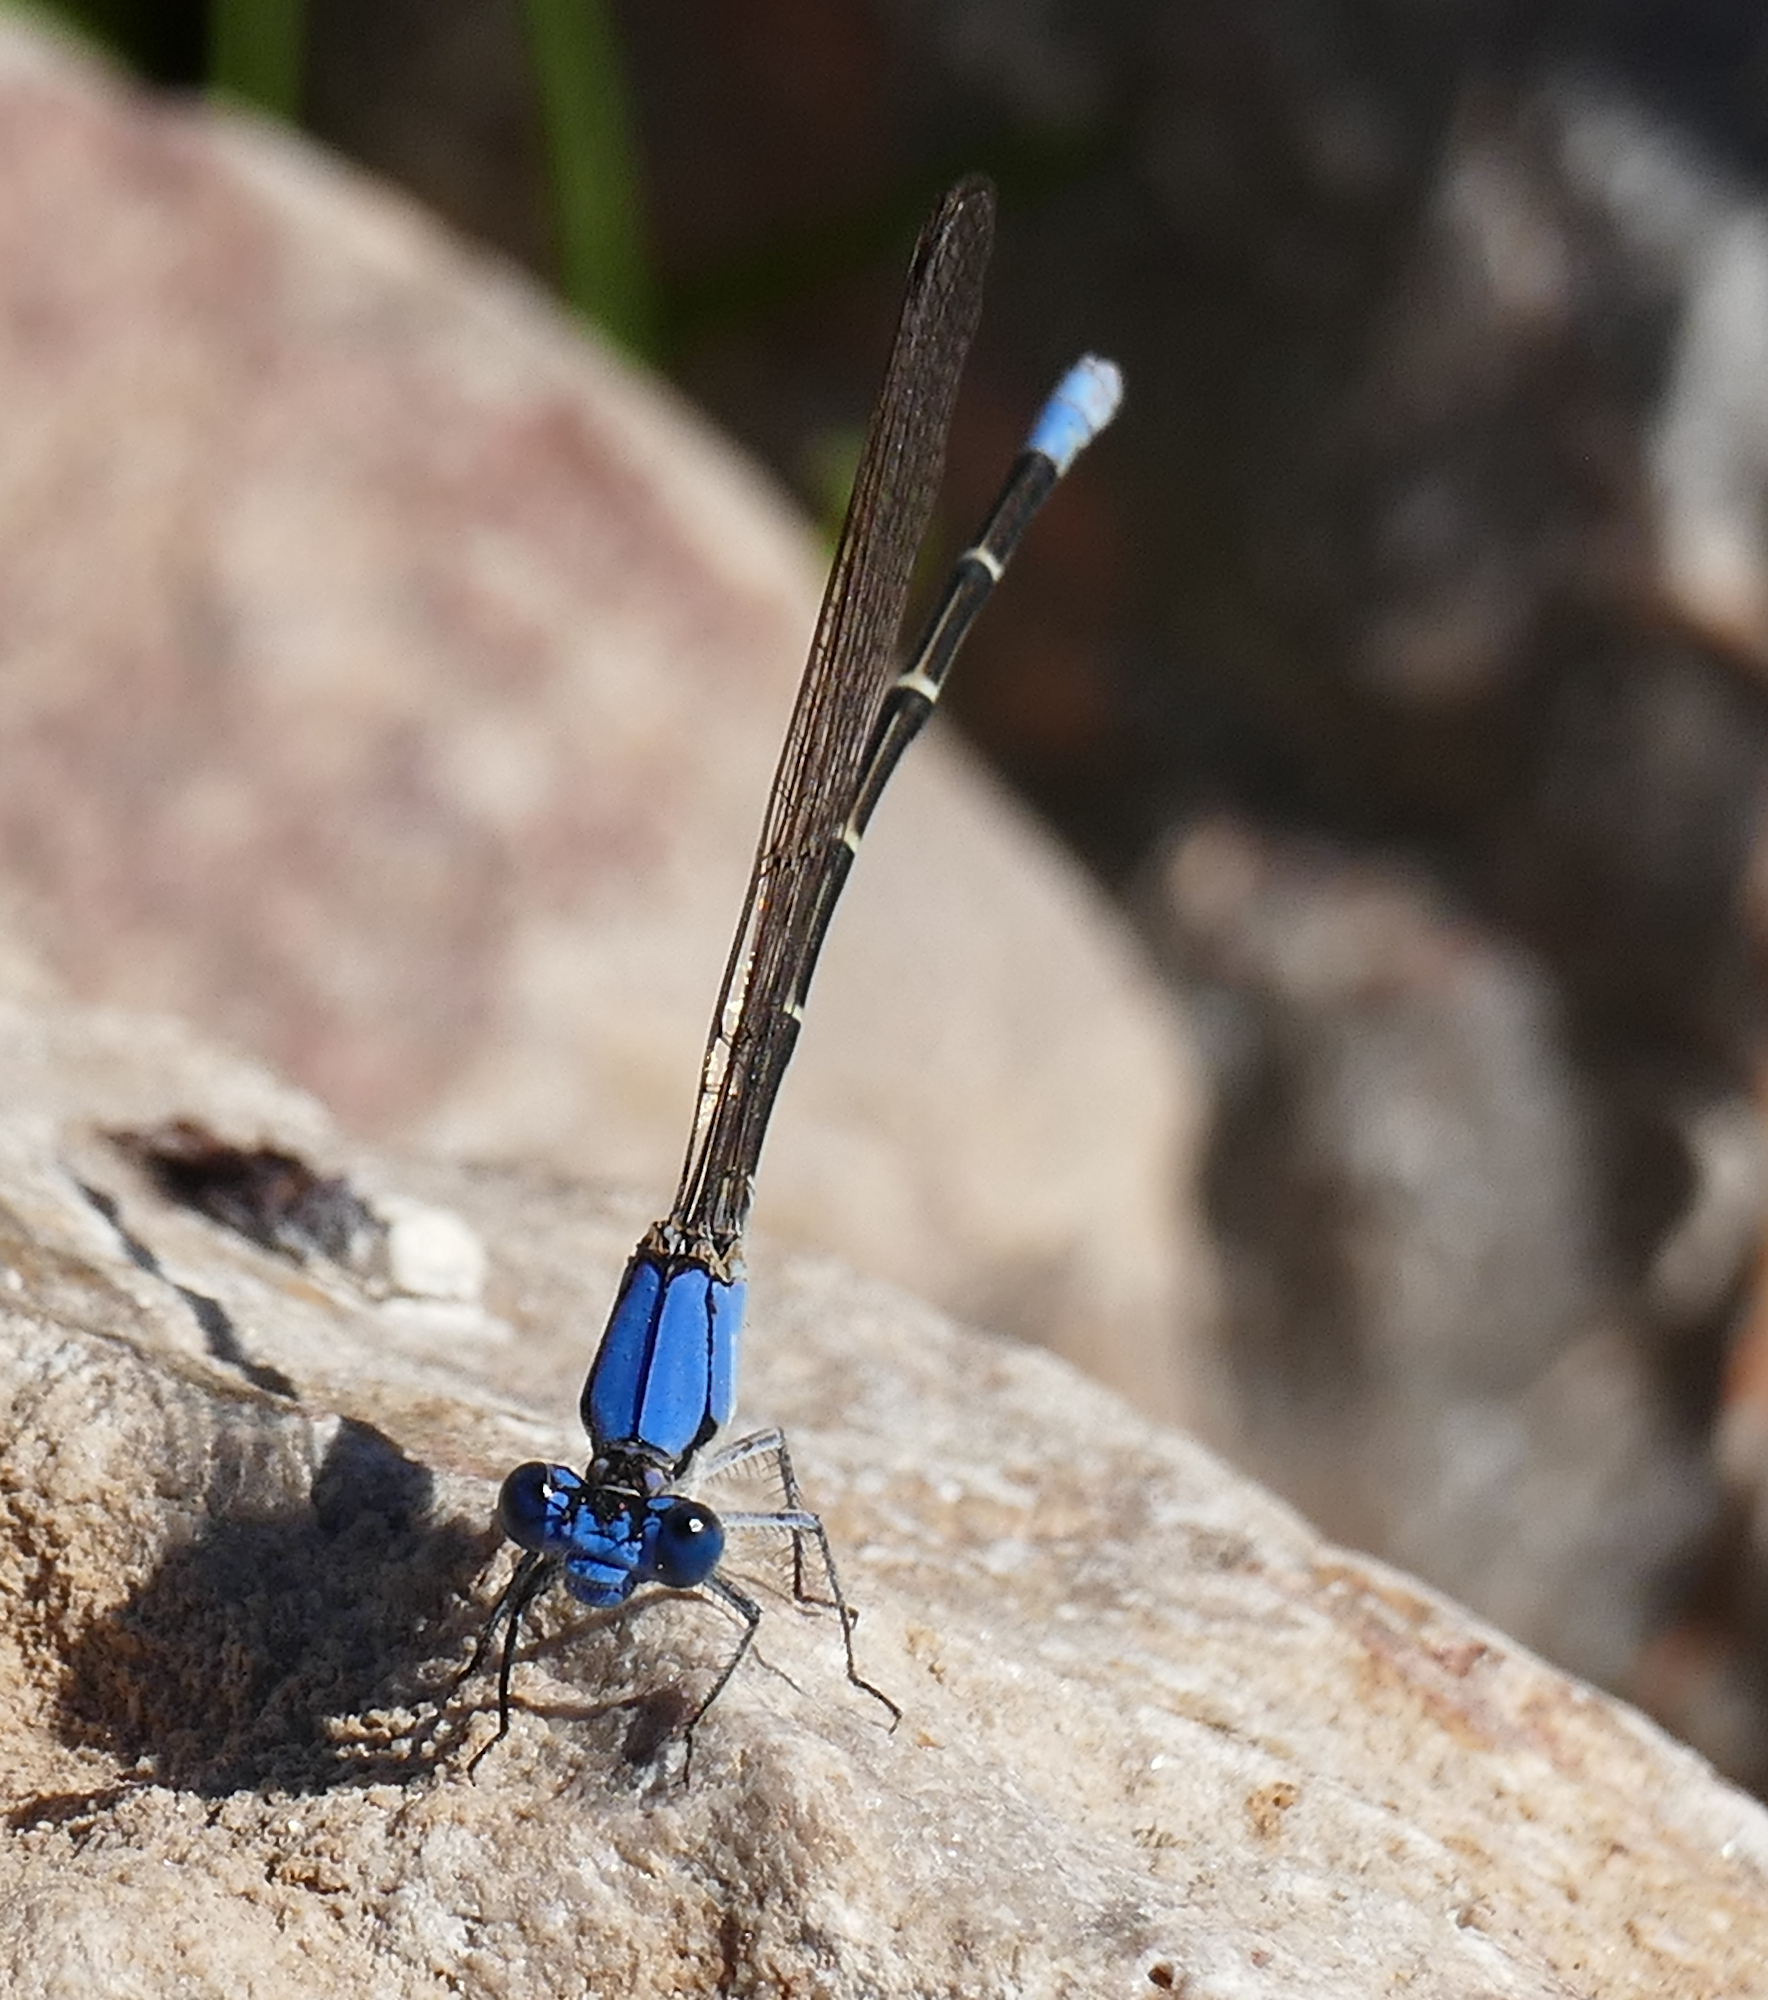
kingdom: Animalia
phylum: Arthropoda
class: Insecta
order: Odonata
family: Coenagrionidae
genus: Argia
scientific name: Argia apicalis
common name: Blue-fronted dancer
